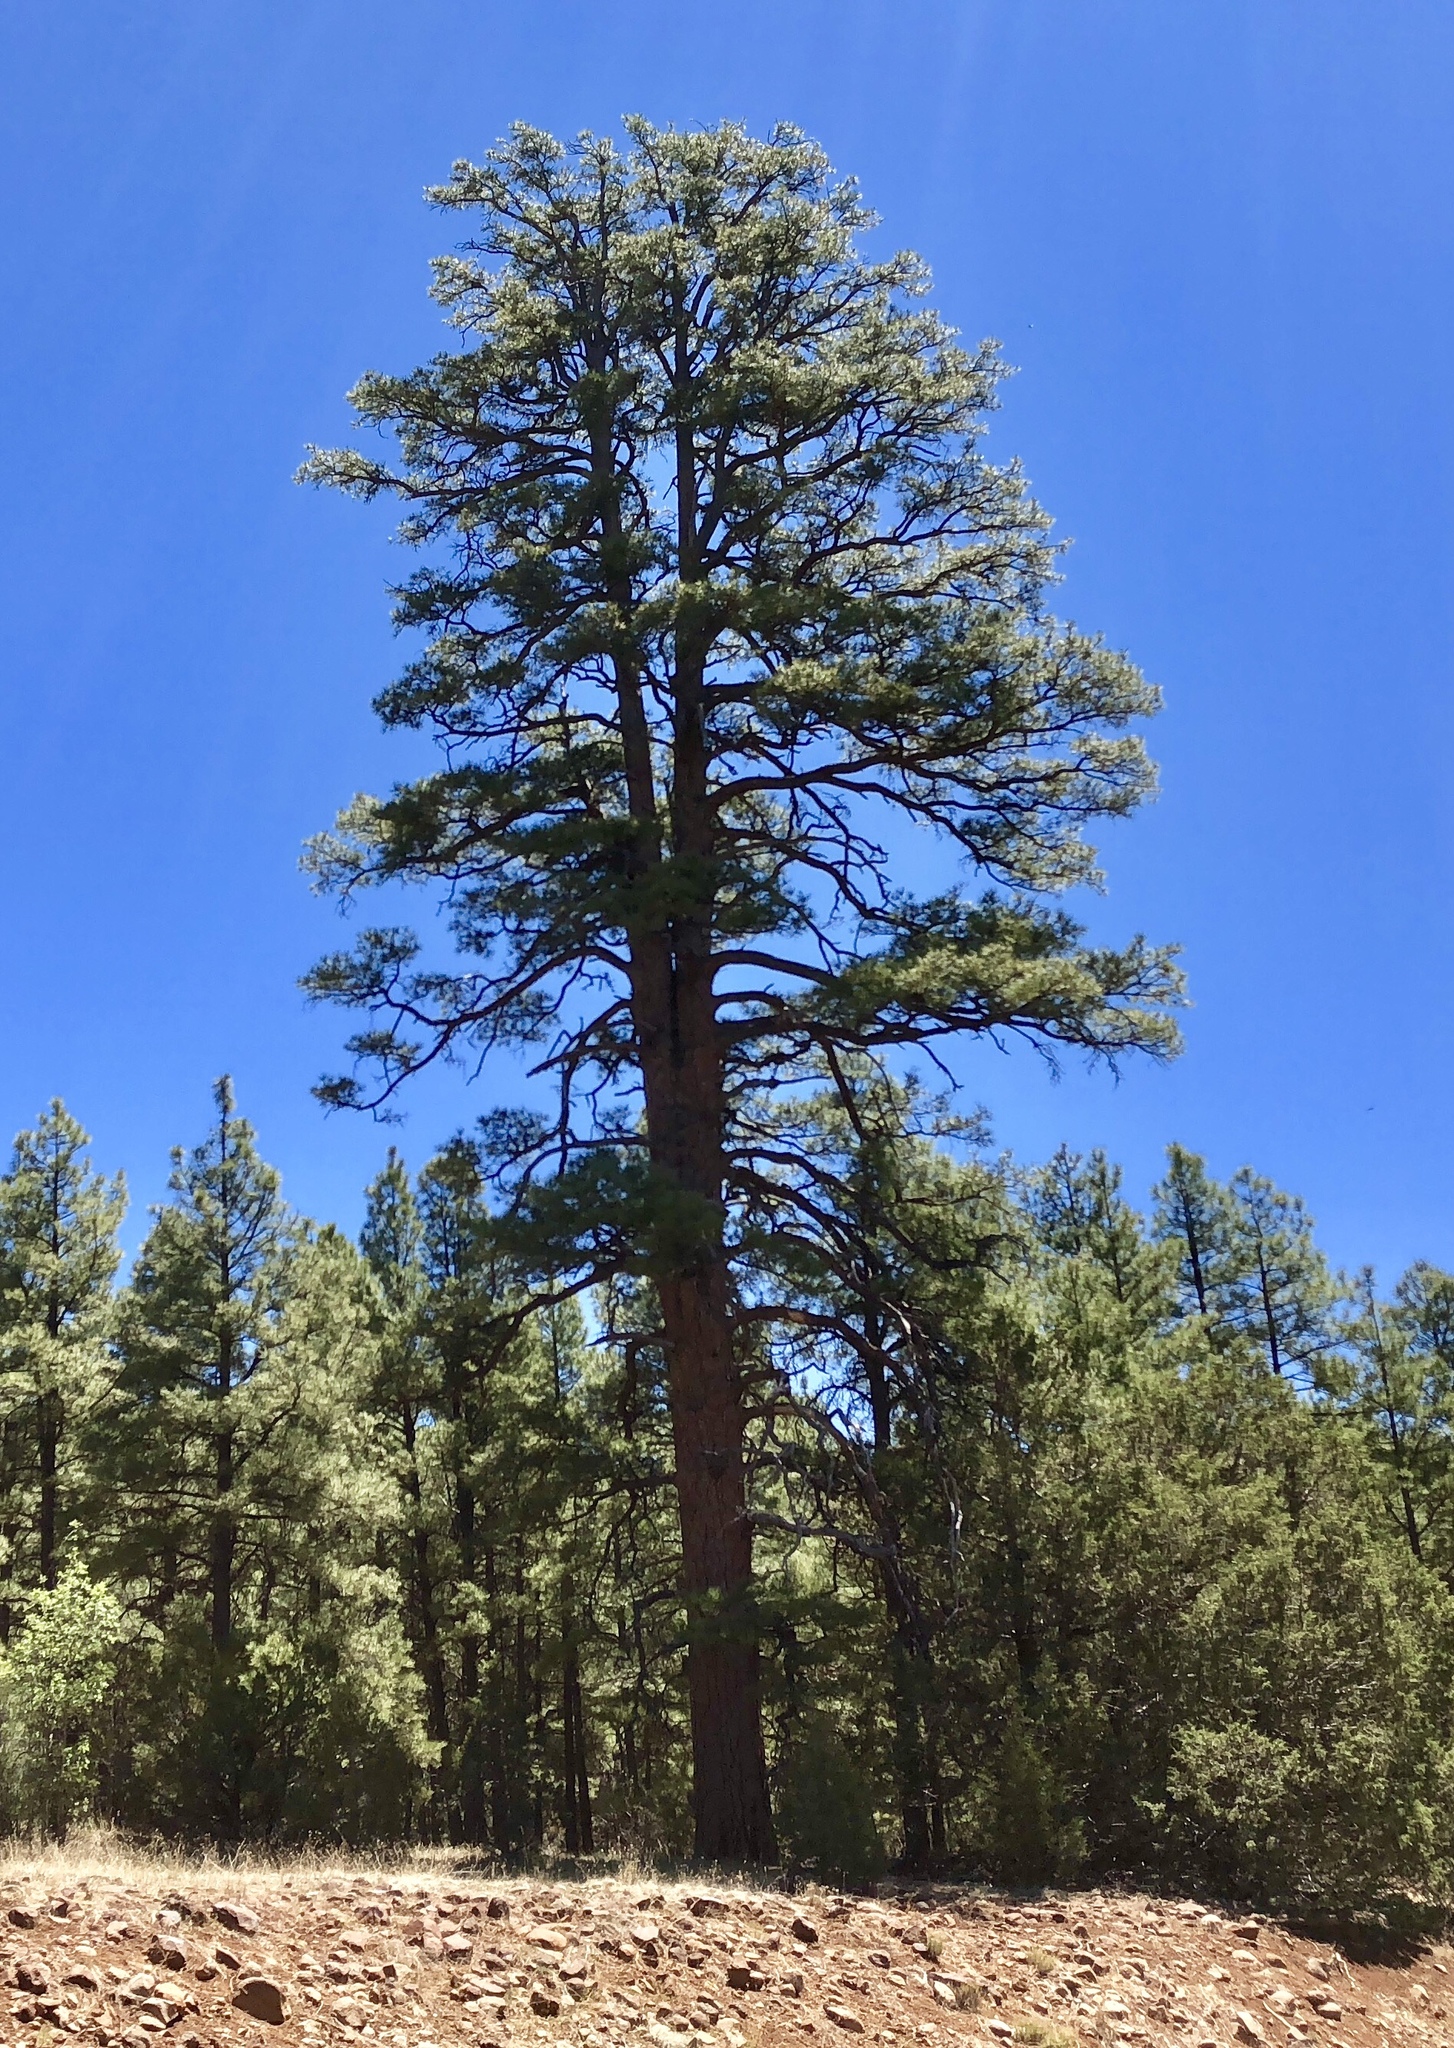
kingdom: Plantae
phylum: Tracheophyta
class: Pinopsida
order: Pinales
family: Pinaceae
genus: Pinus
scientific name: Pinus ponderosa
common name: Western yellow-pine
